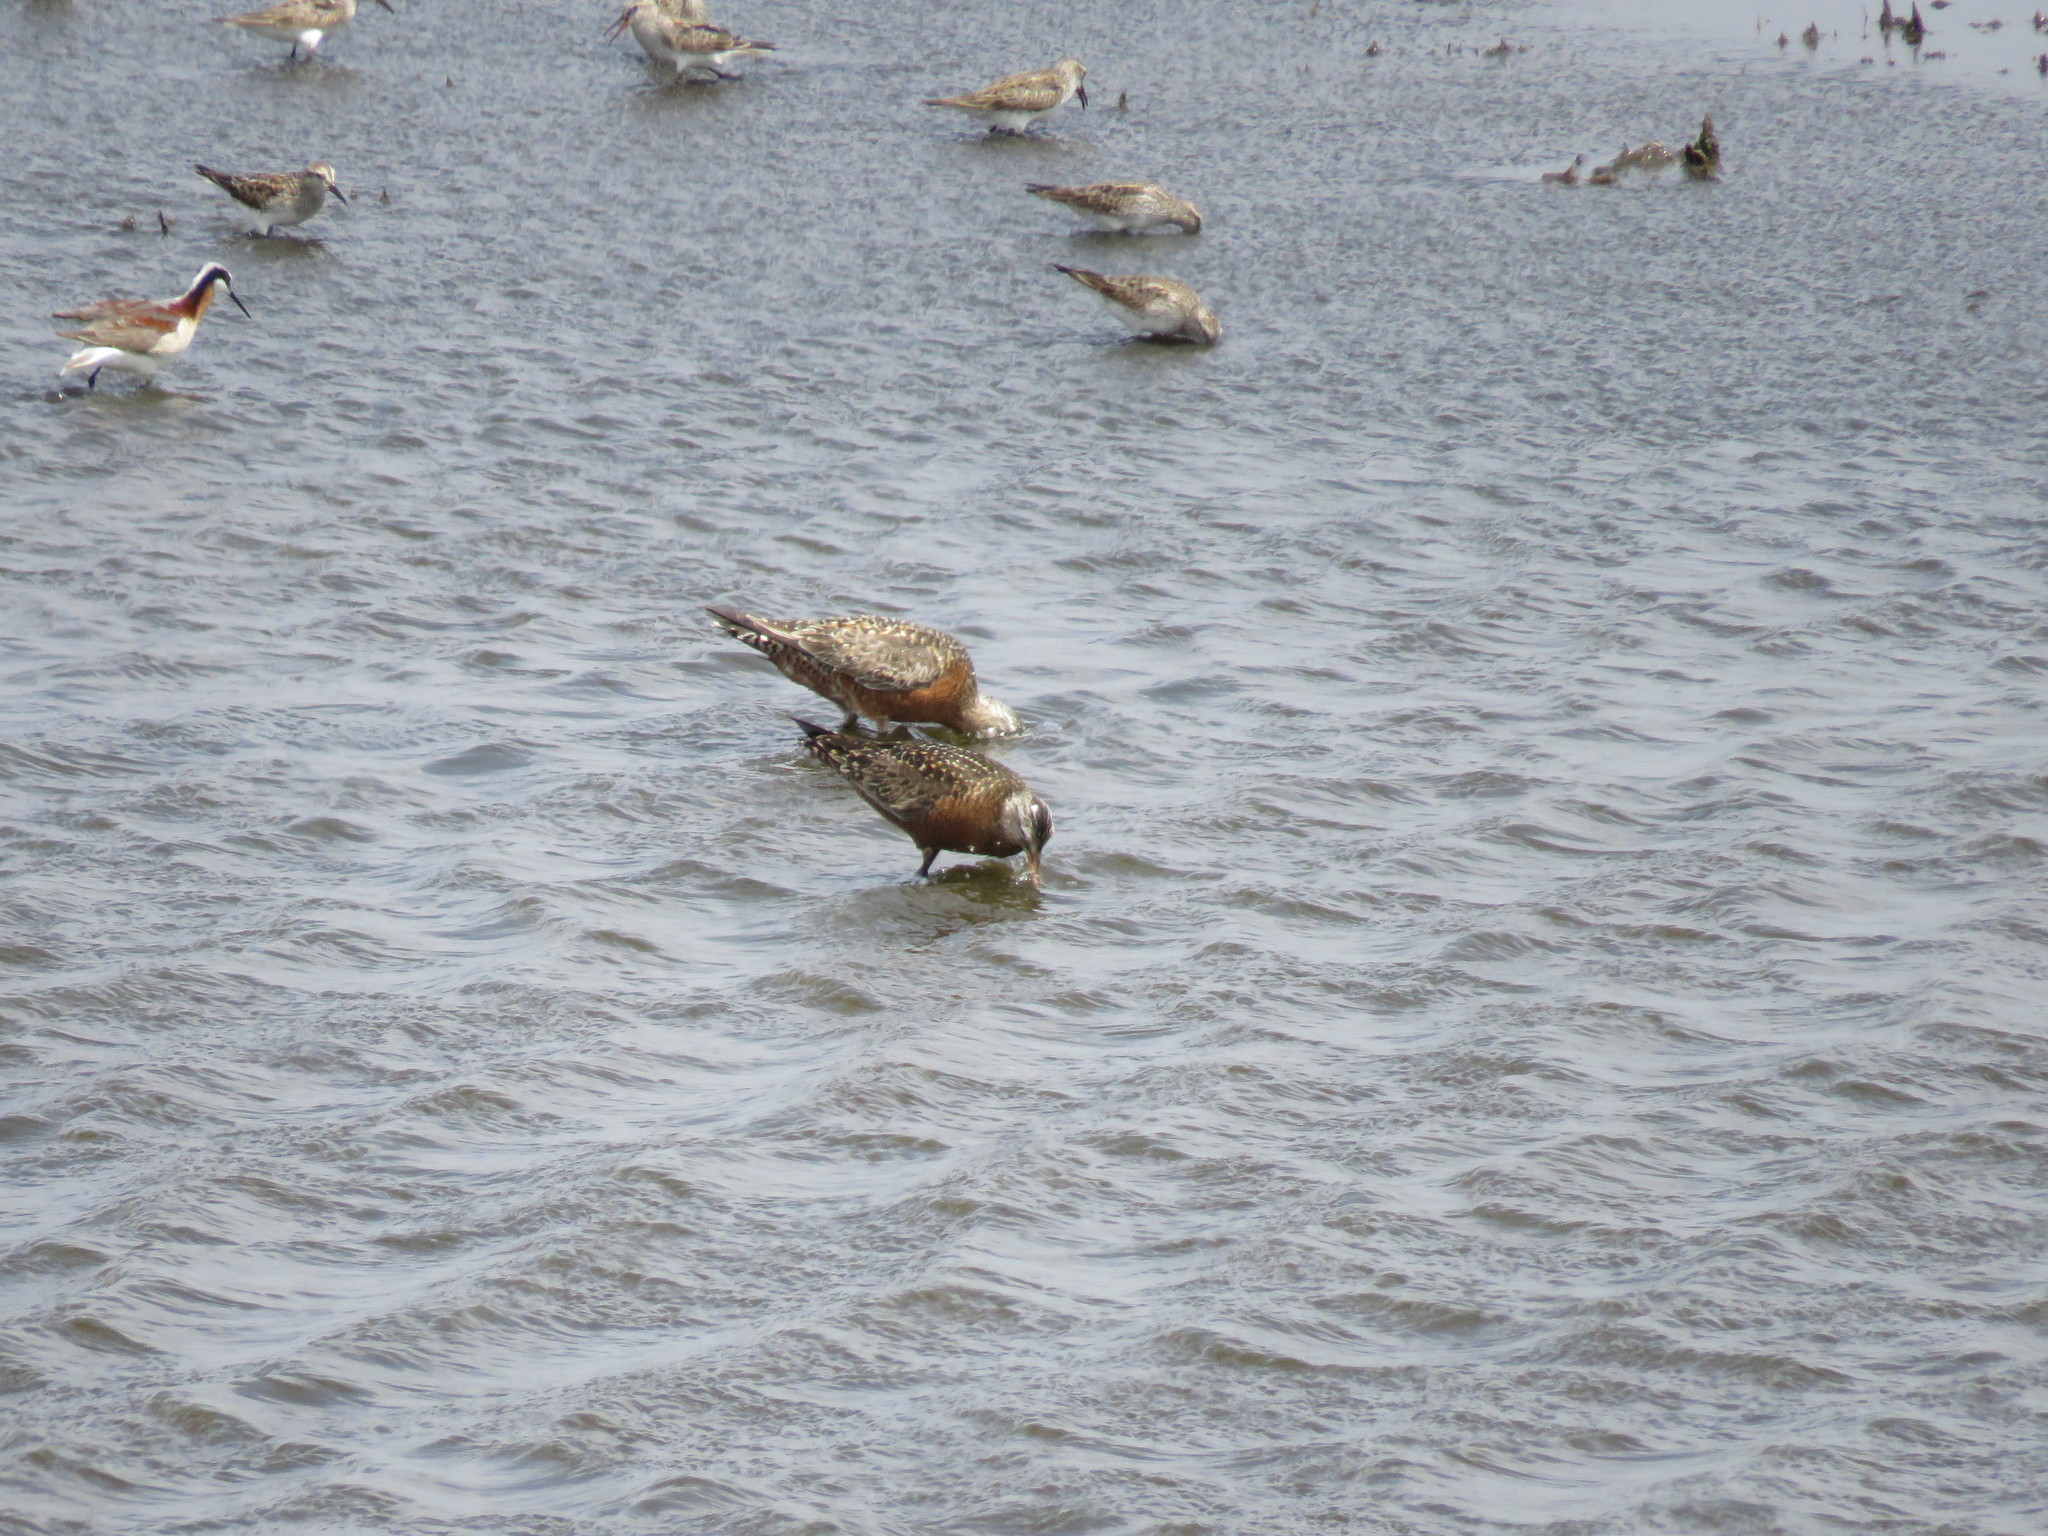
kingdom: Animalia
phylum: Chordata
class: Aves
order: Charadriiformes
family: Scolopacidae
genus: Limosa
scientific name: Limosa haemastica
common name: Hudsonian godwit
